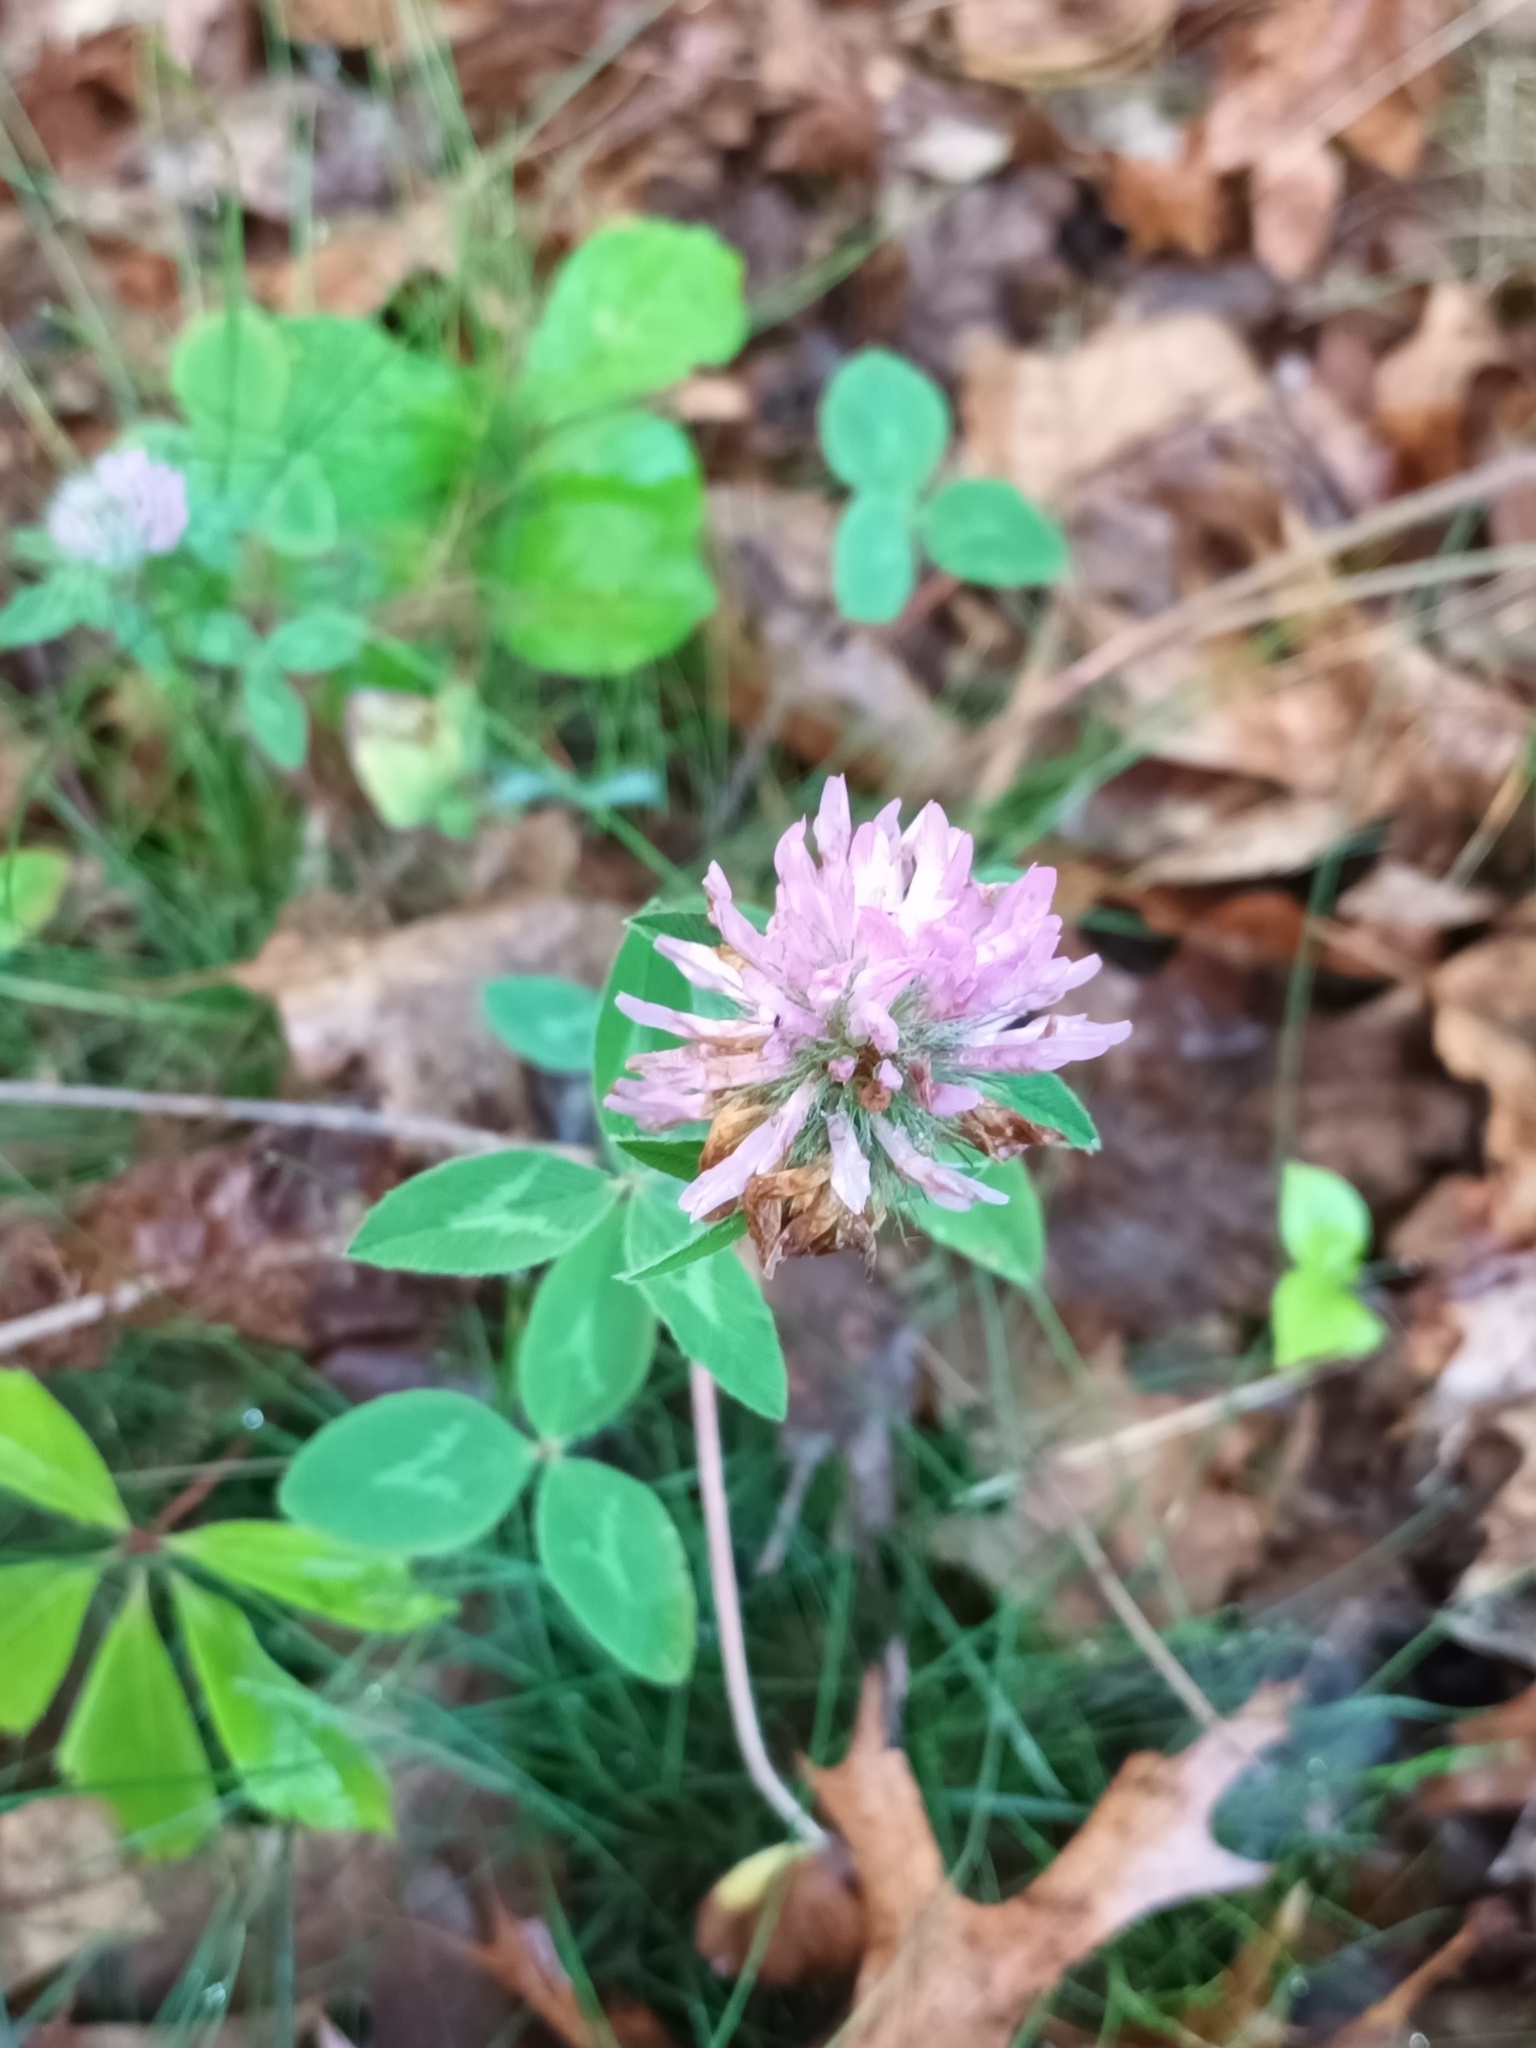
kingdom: Plantae
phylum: Tracheophyta
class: Magnoliopsida
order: Fabales
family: Fabaceae
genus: Trifolium
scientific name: Trifolium pratense
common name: Red clover
